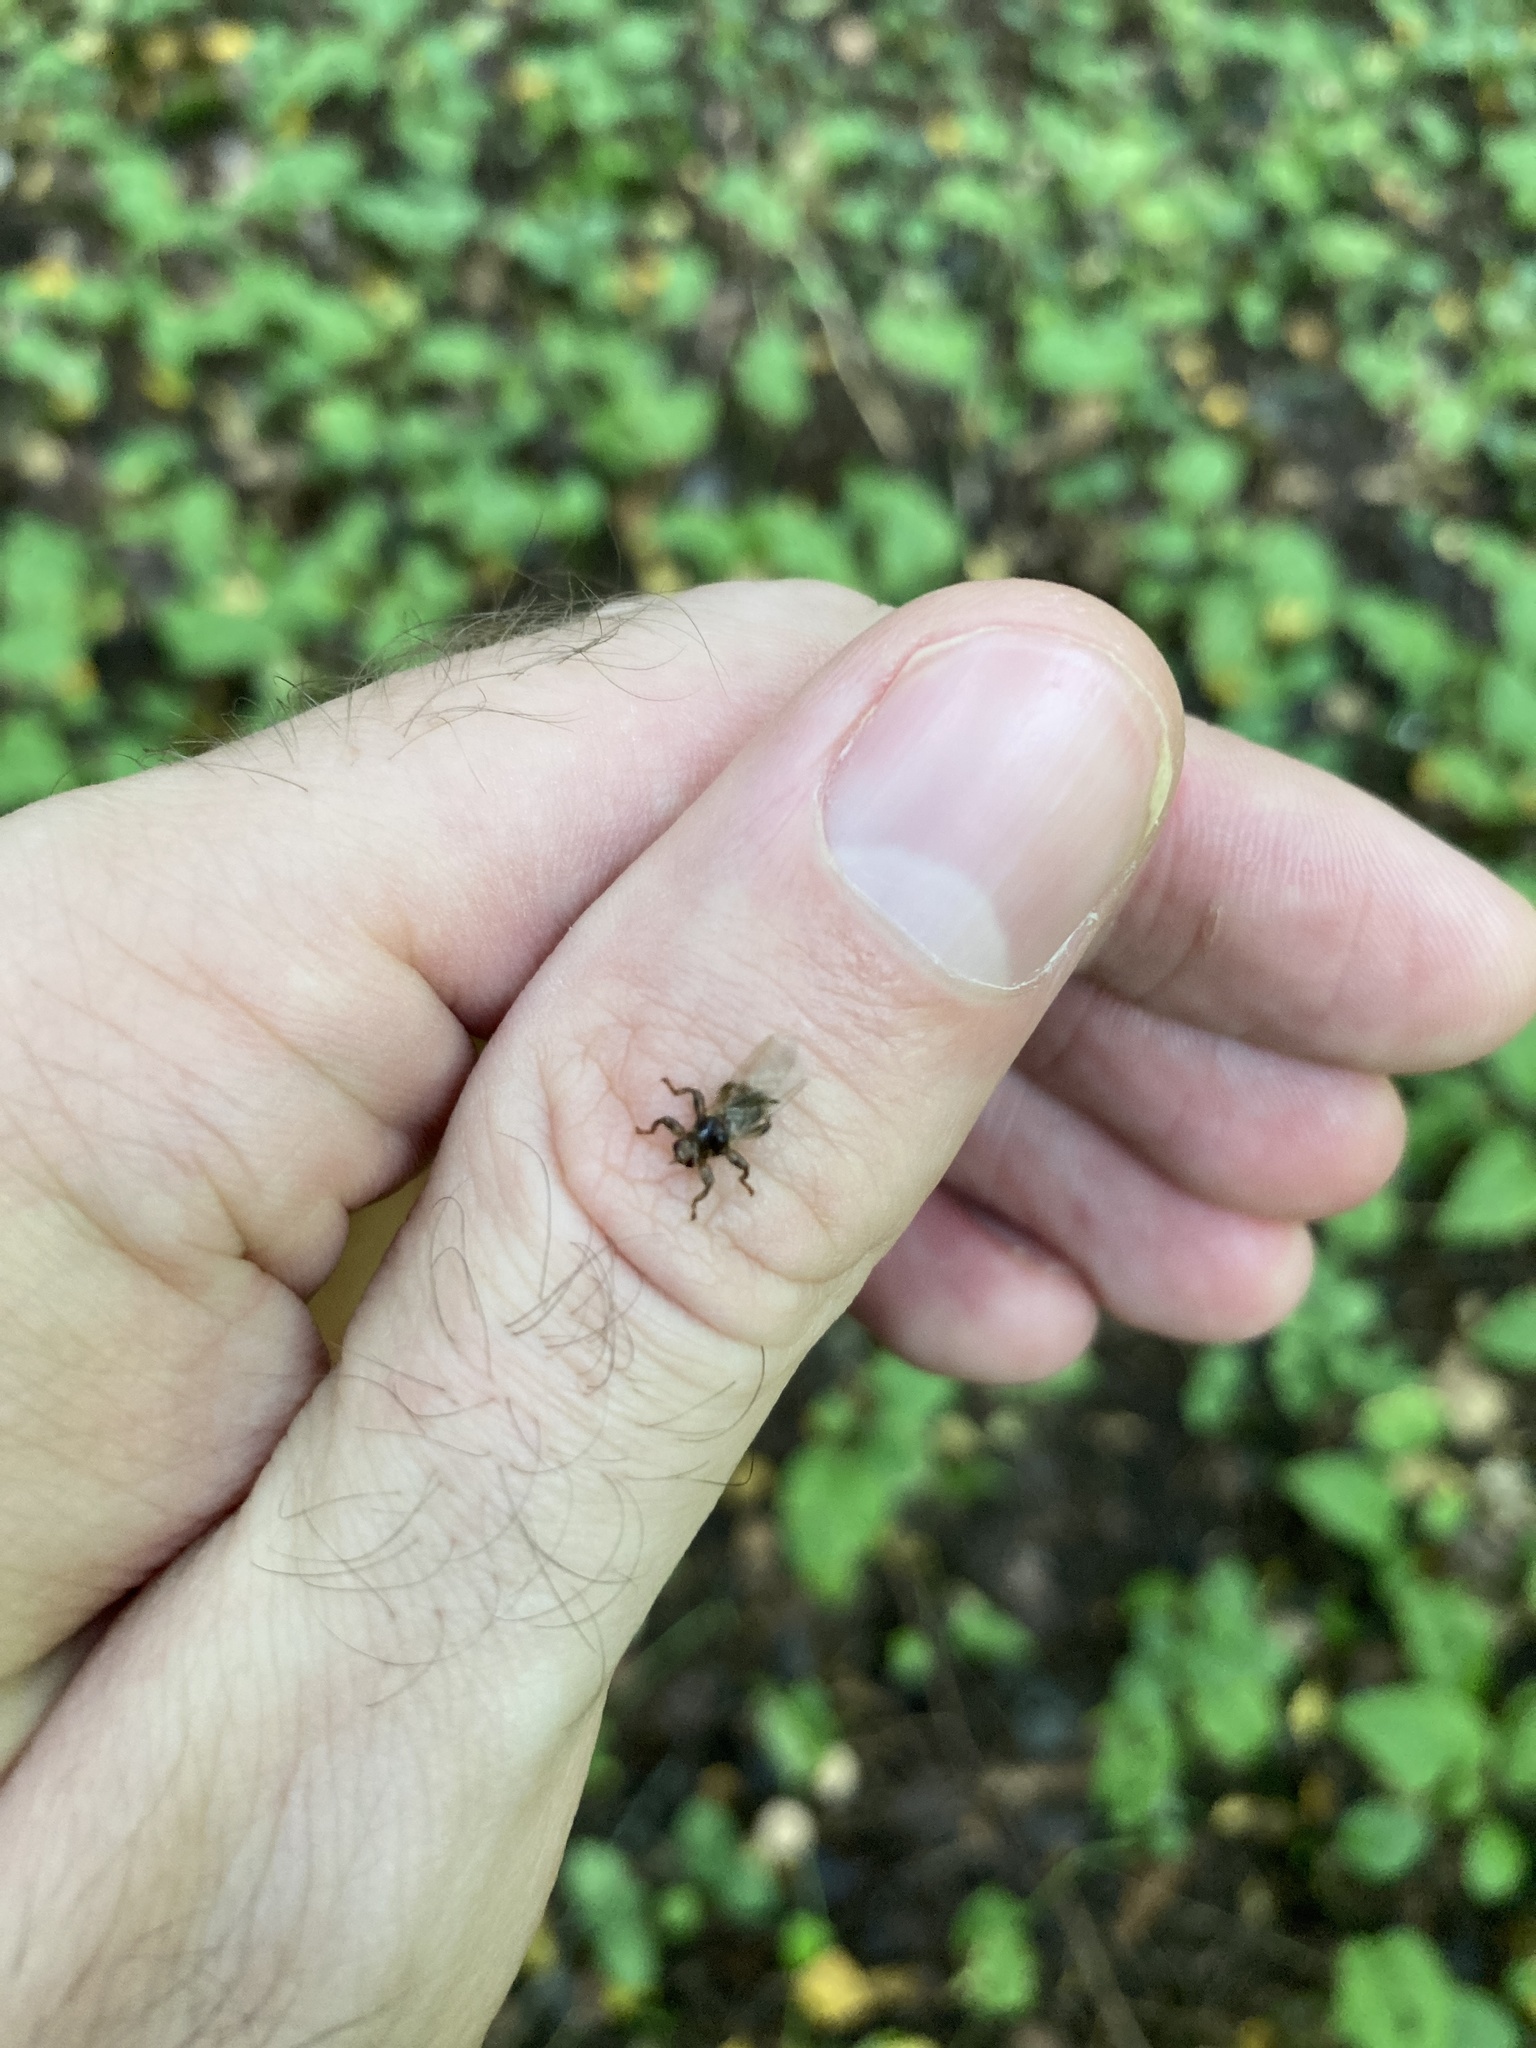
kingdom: Animalia
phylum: Arthropoda
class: Insecta
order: Diptera
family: Hippoboscidae
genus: Lipoptena
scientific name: Lipoptena cervi
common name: Deer ked
